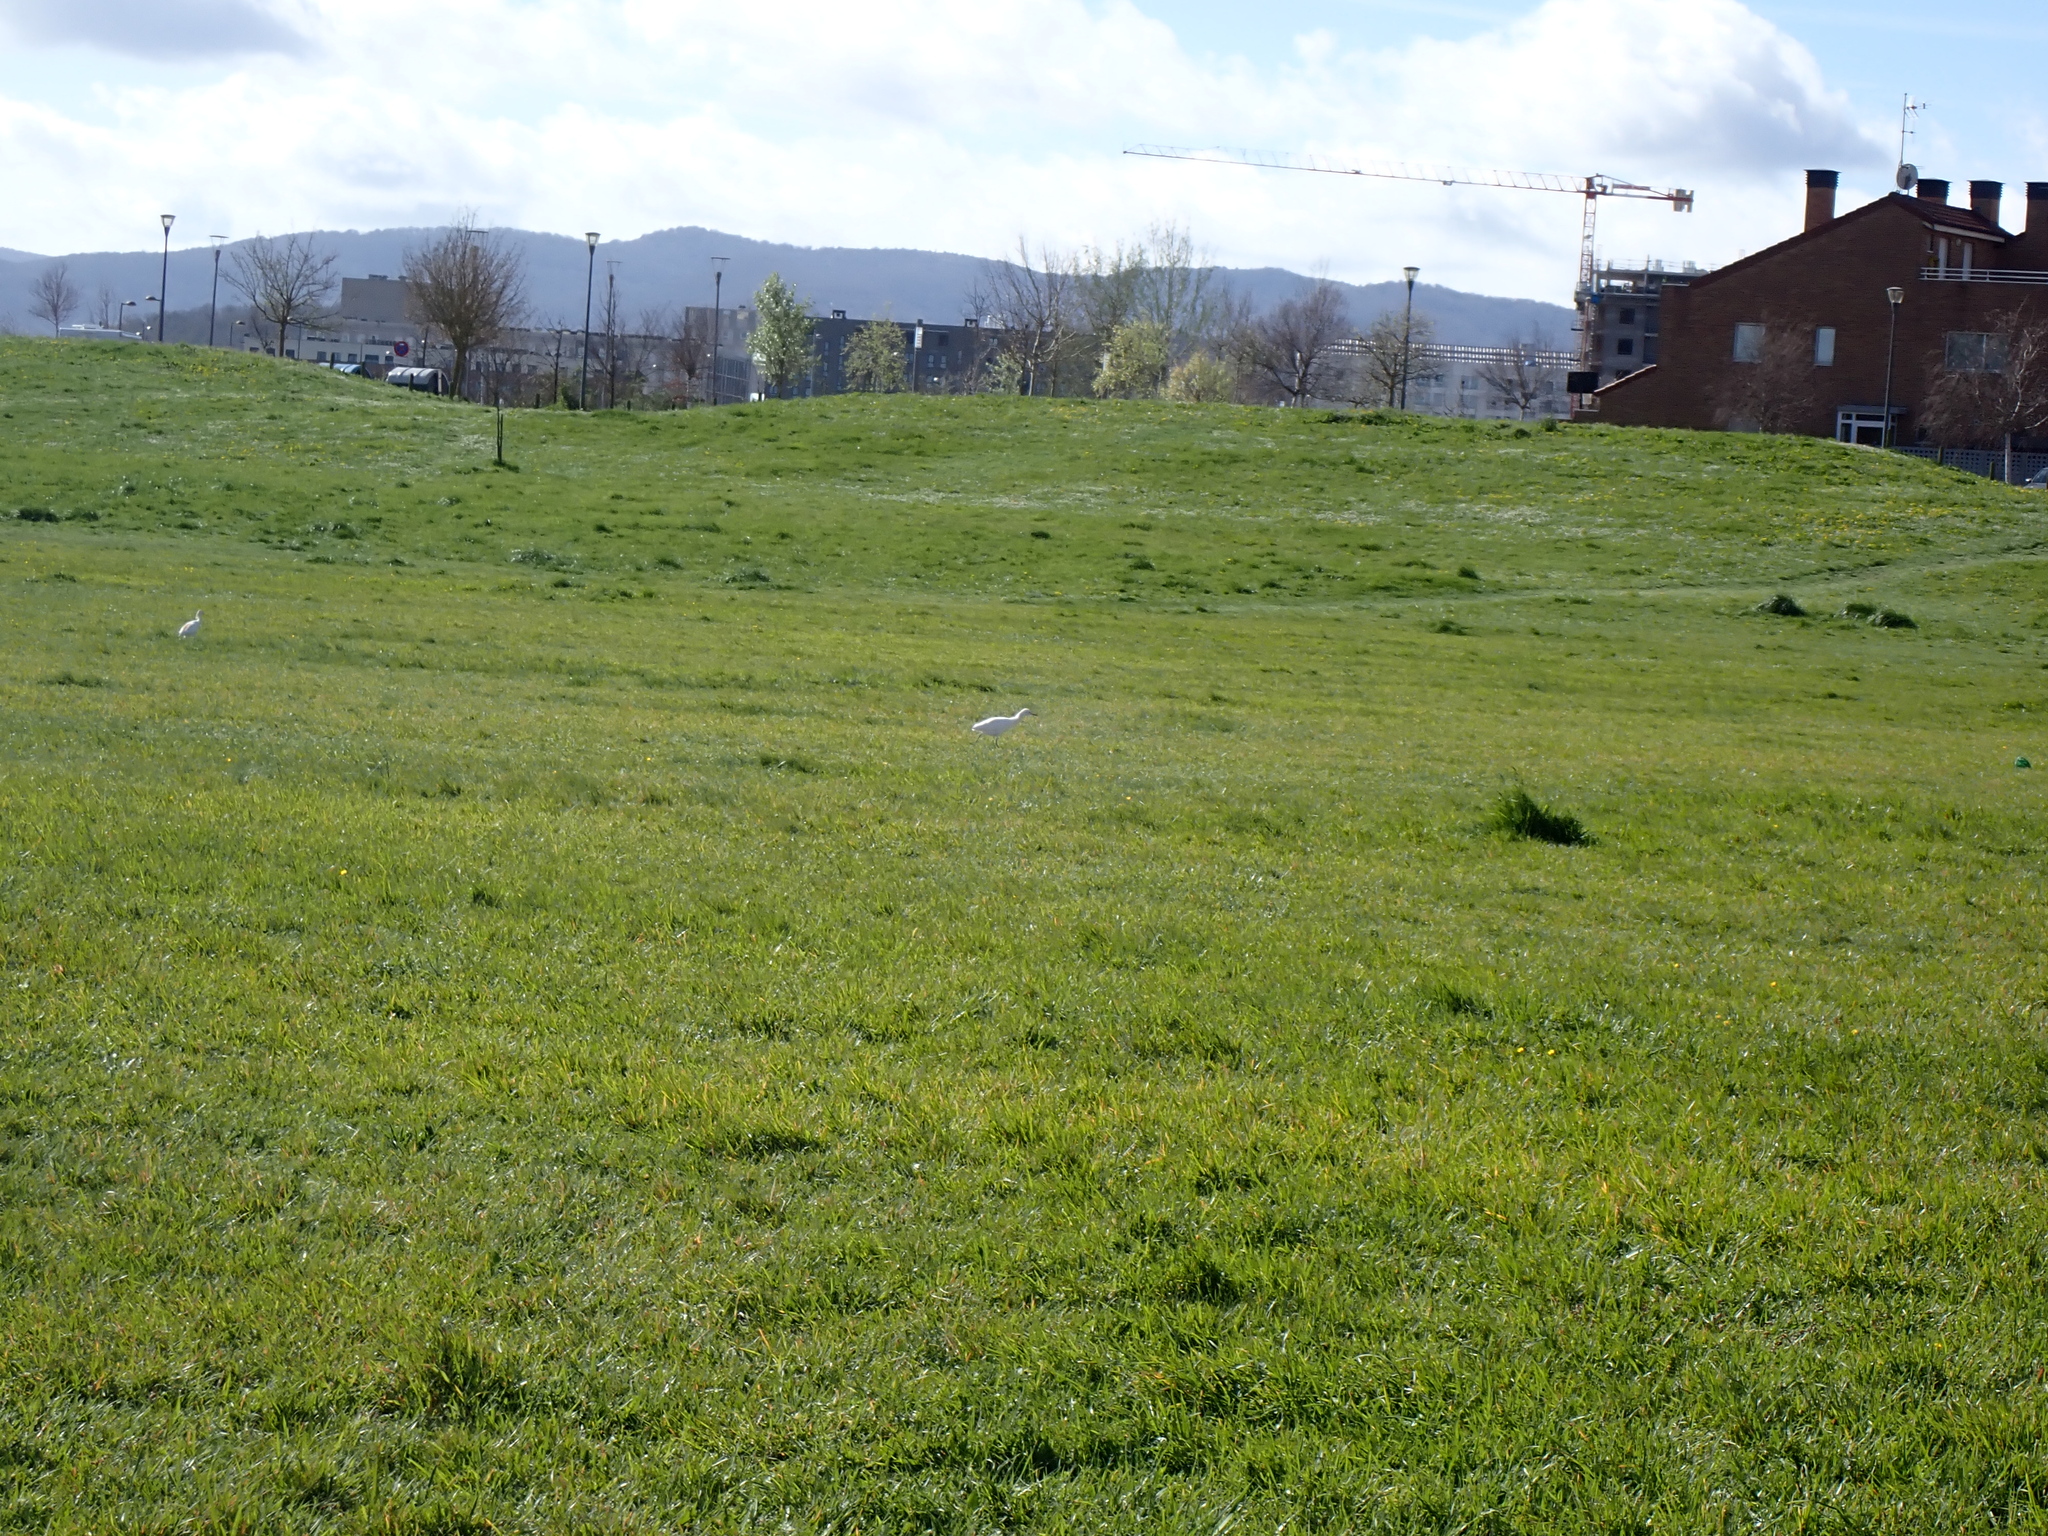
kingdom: Animalia
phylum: Chordata
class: Aves
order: Pelecaniformes
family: Ardeidae
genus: Bubulcus
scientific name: Bubulcus ibis
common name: Cattle egret
